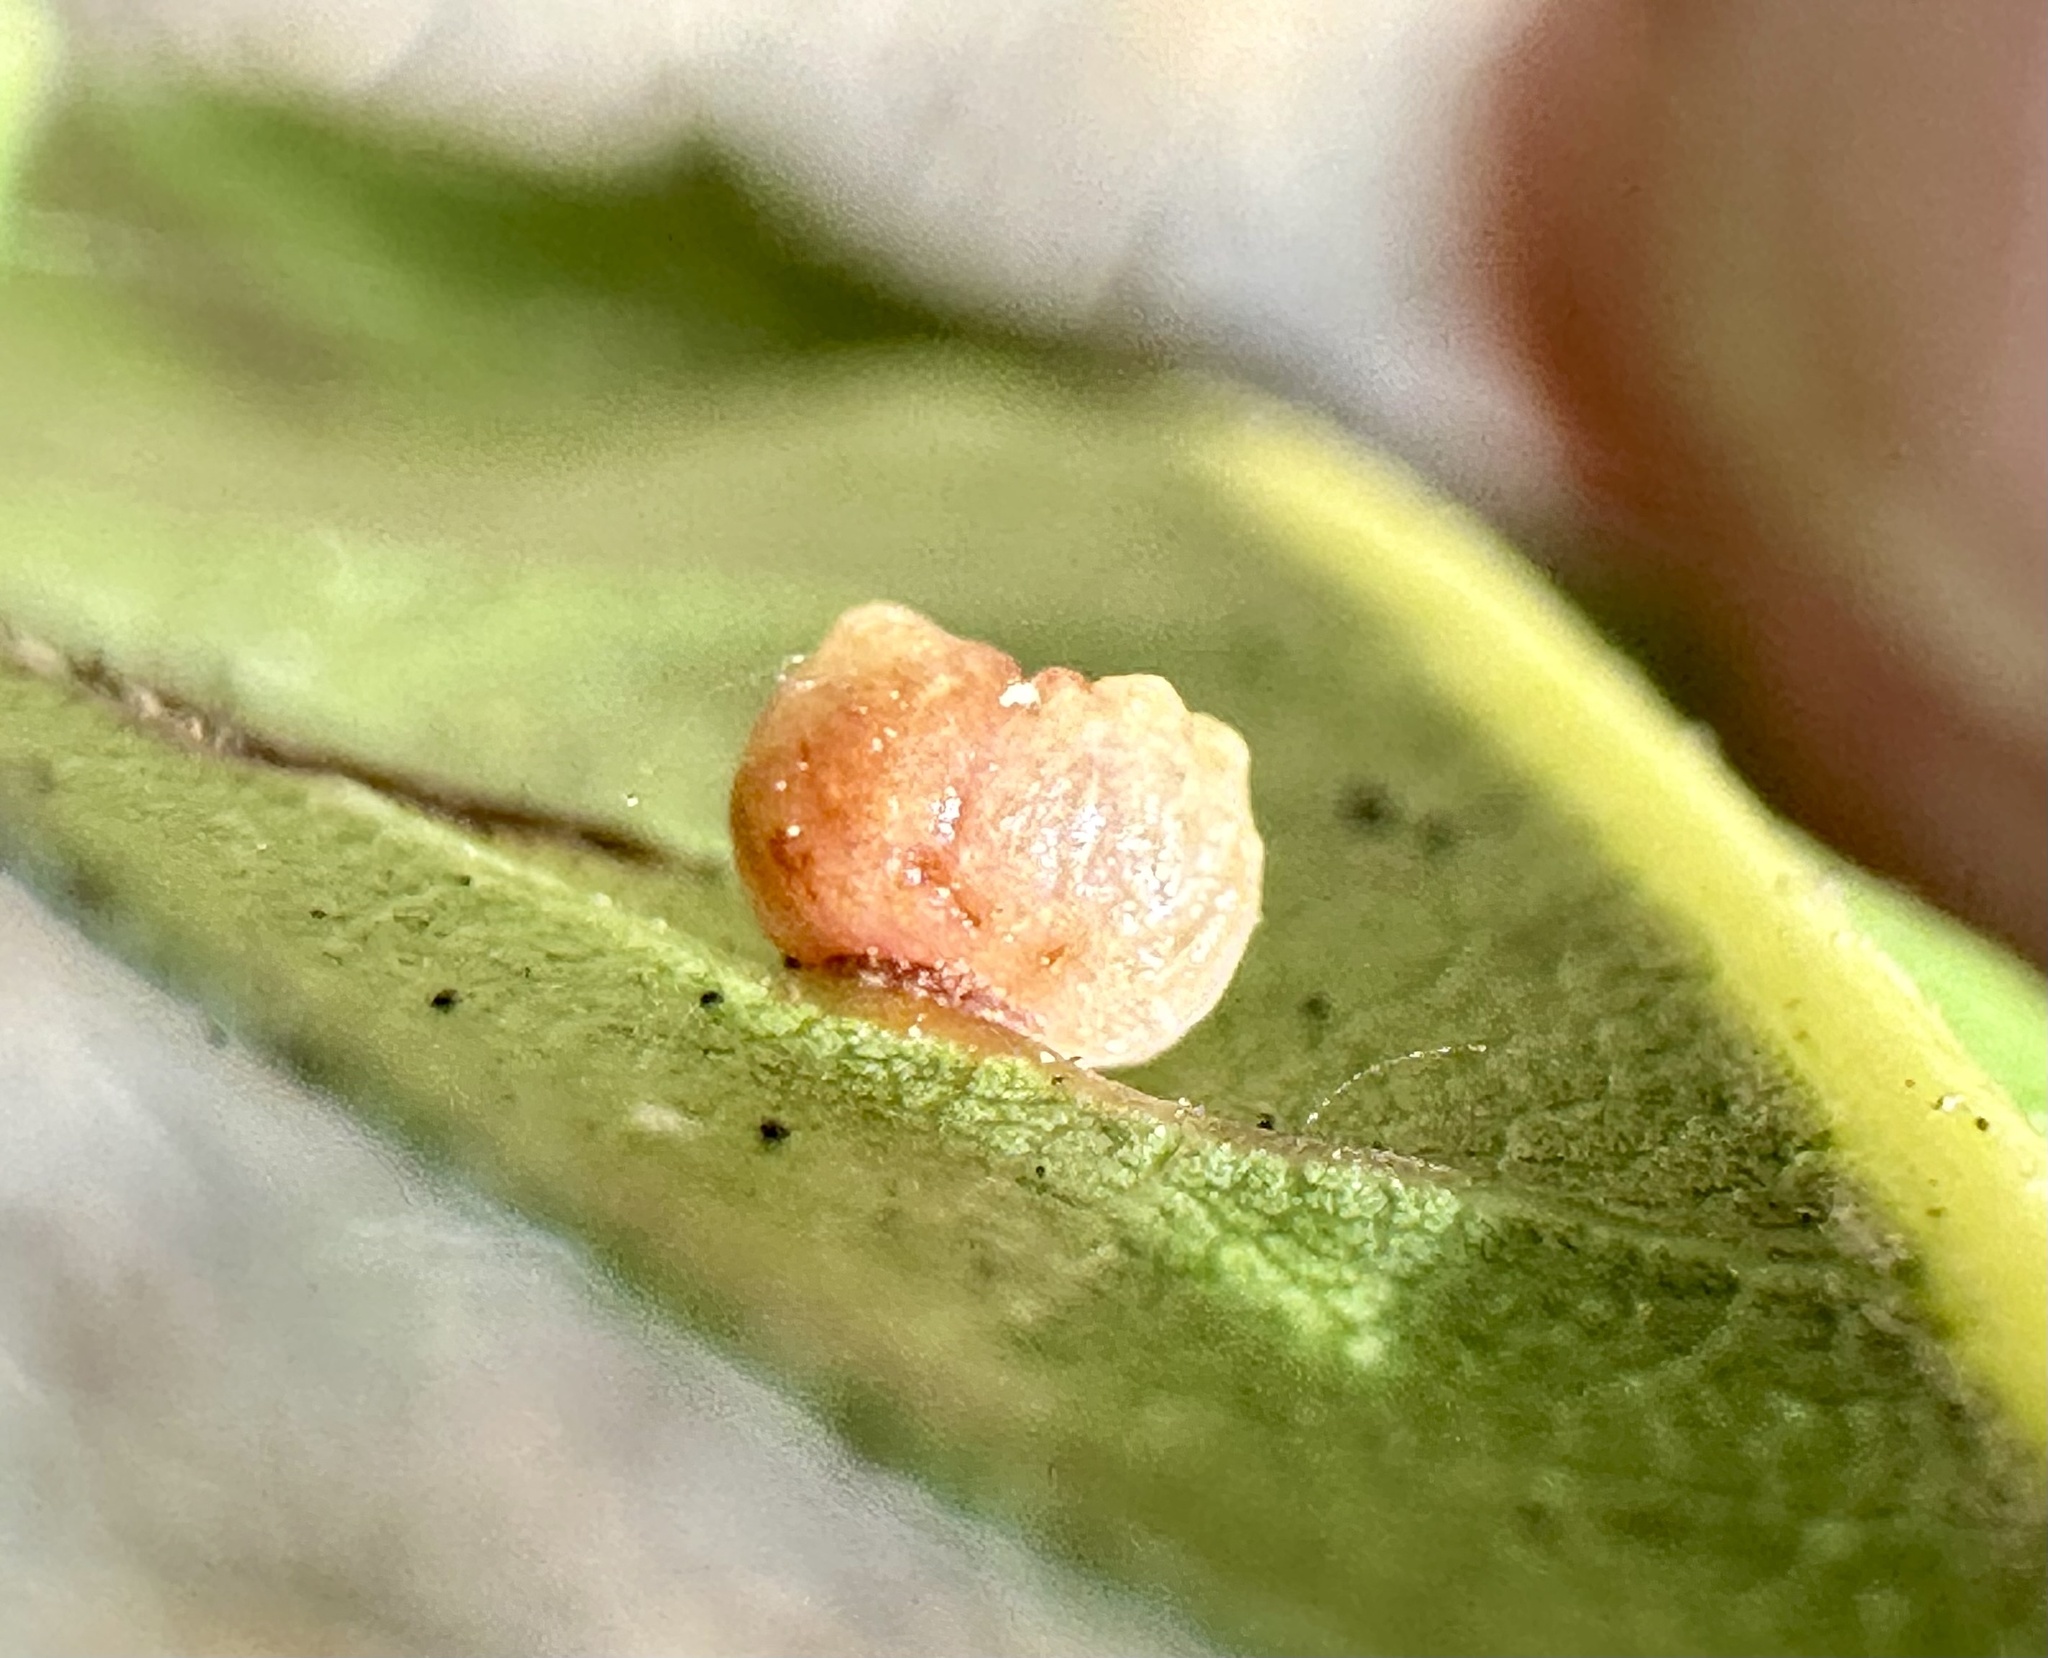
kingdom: Animalia
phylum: Arthropoda
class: Insecta
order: Hymenoptera
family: Cynipidae
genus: Dryocosmus
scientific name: Dryocosmus
